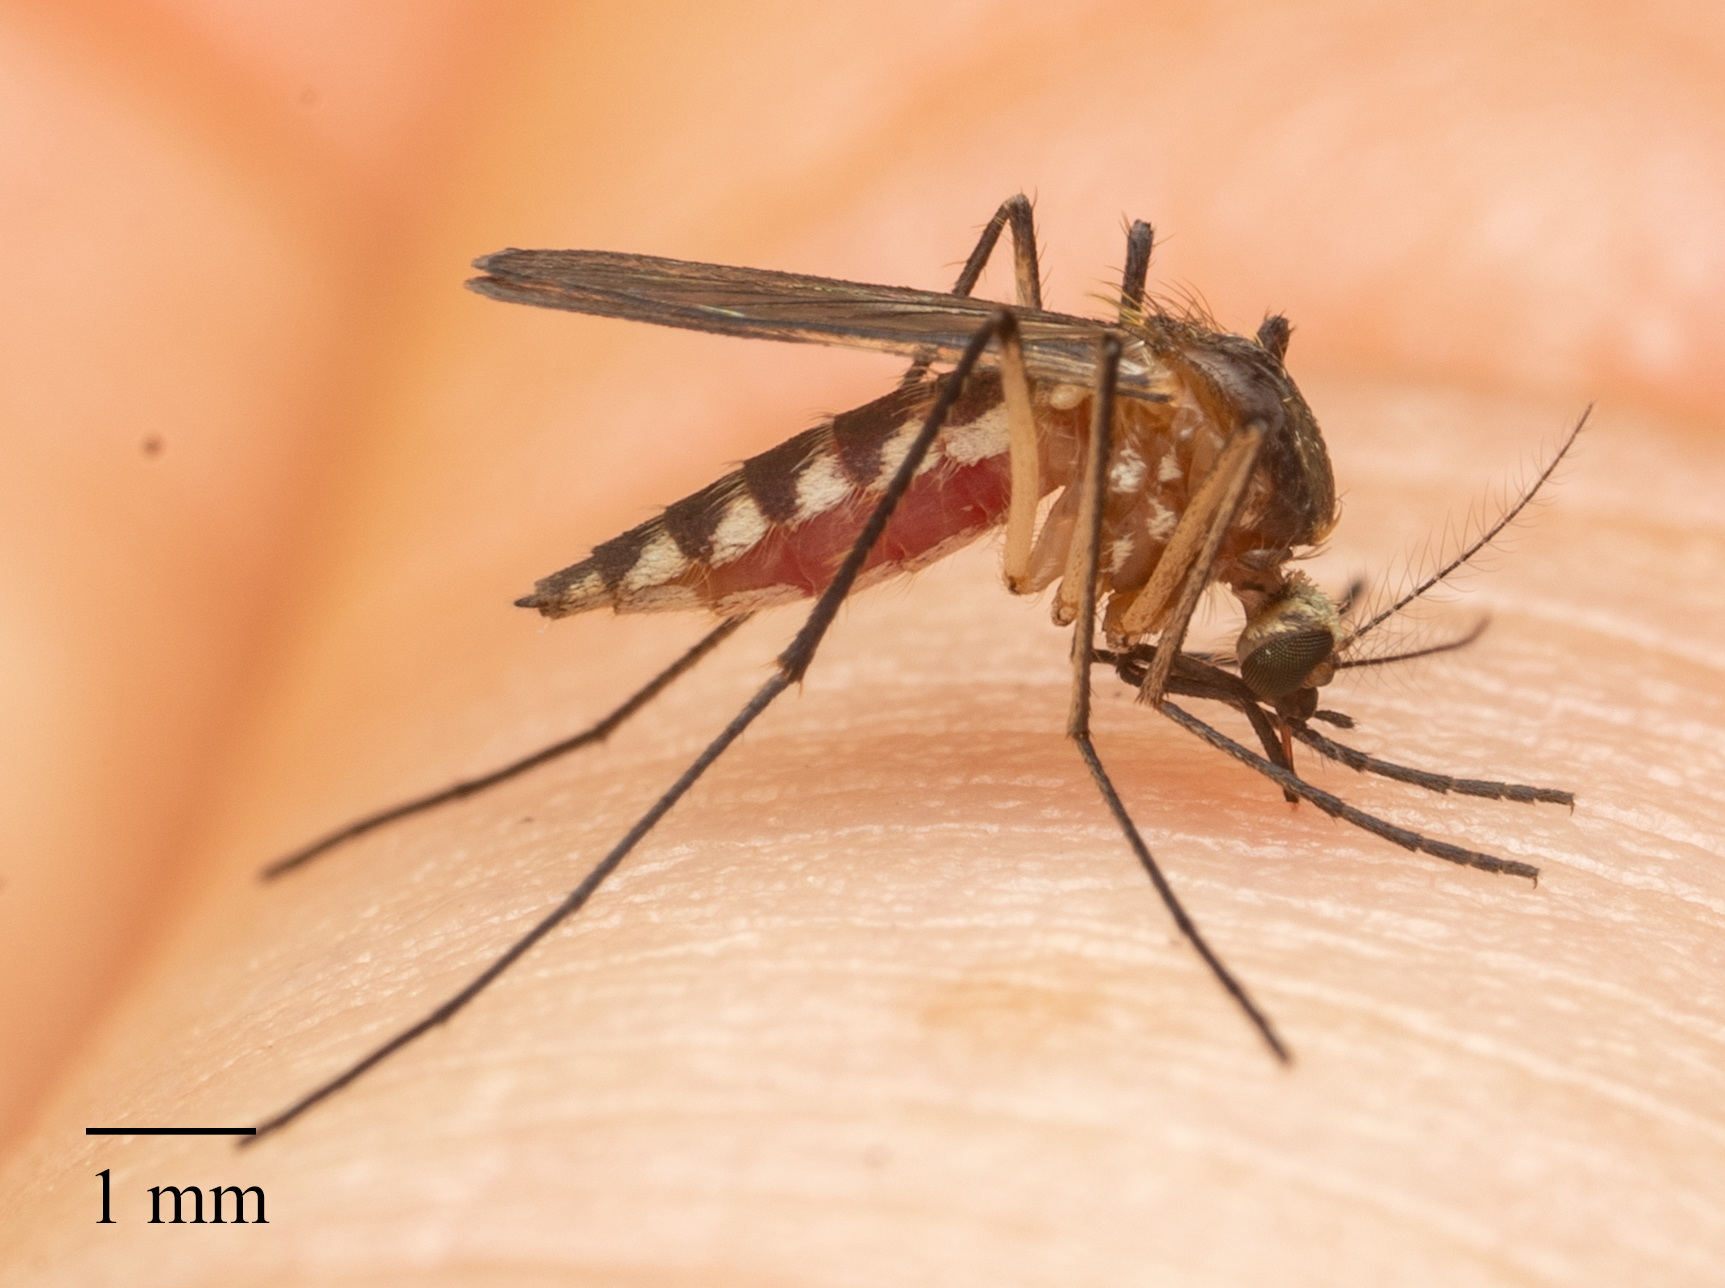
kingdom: Animalia
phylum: Arthropoda
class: Insecta
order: Diptera
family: Culicidae
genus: Aedes
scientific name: Aedes infirmatus
